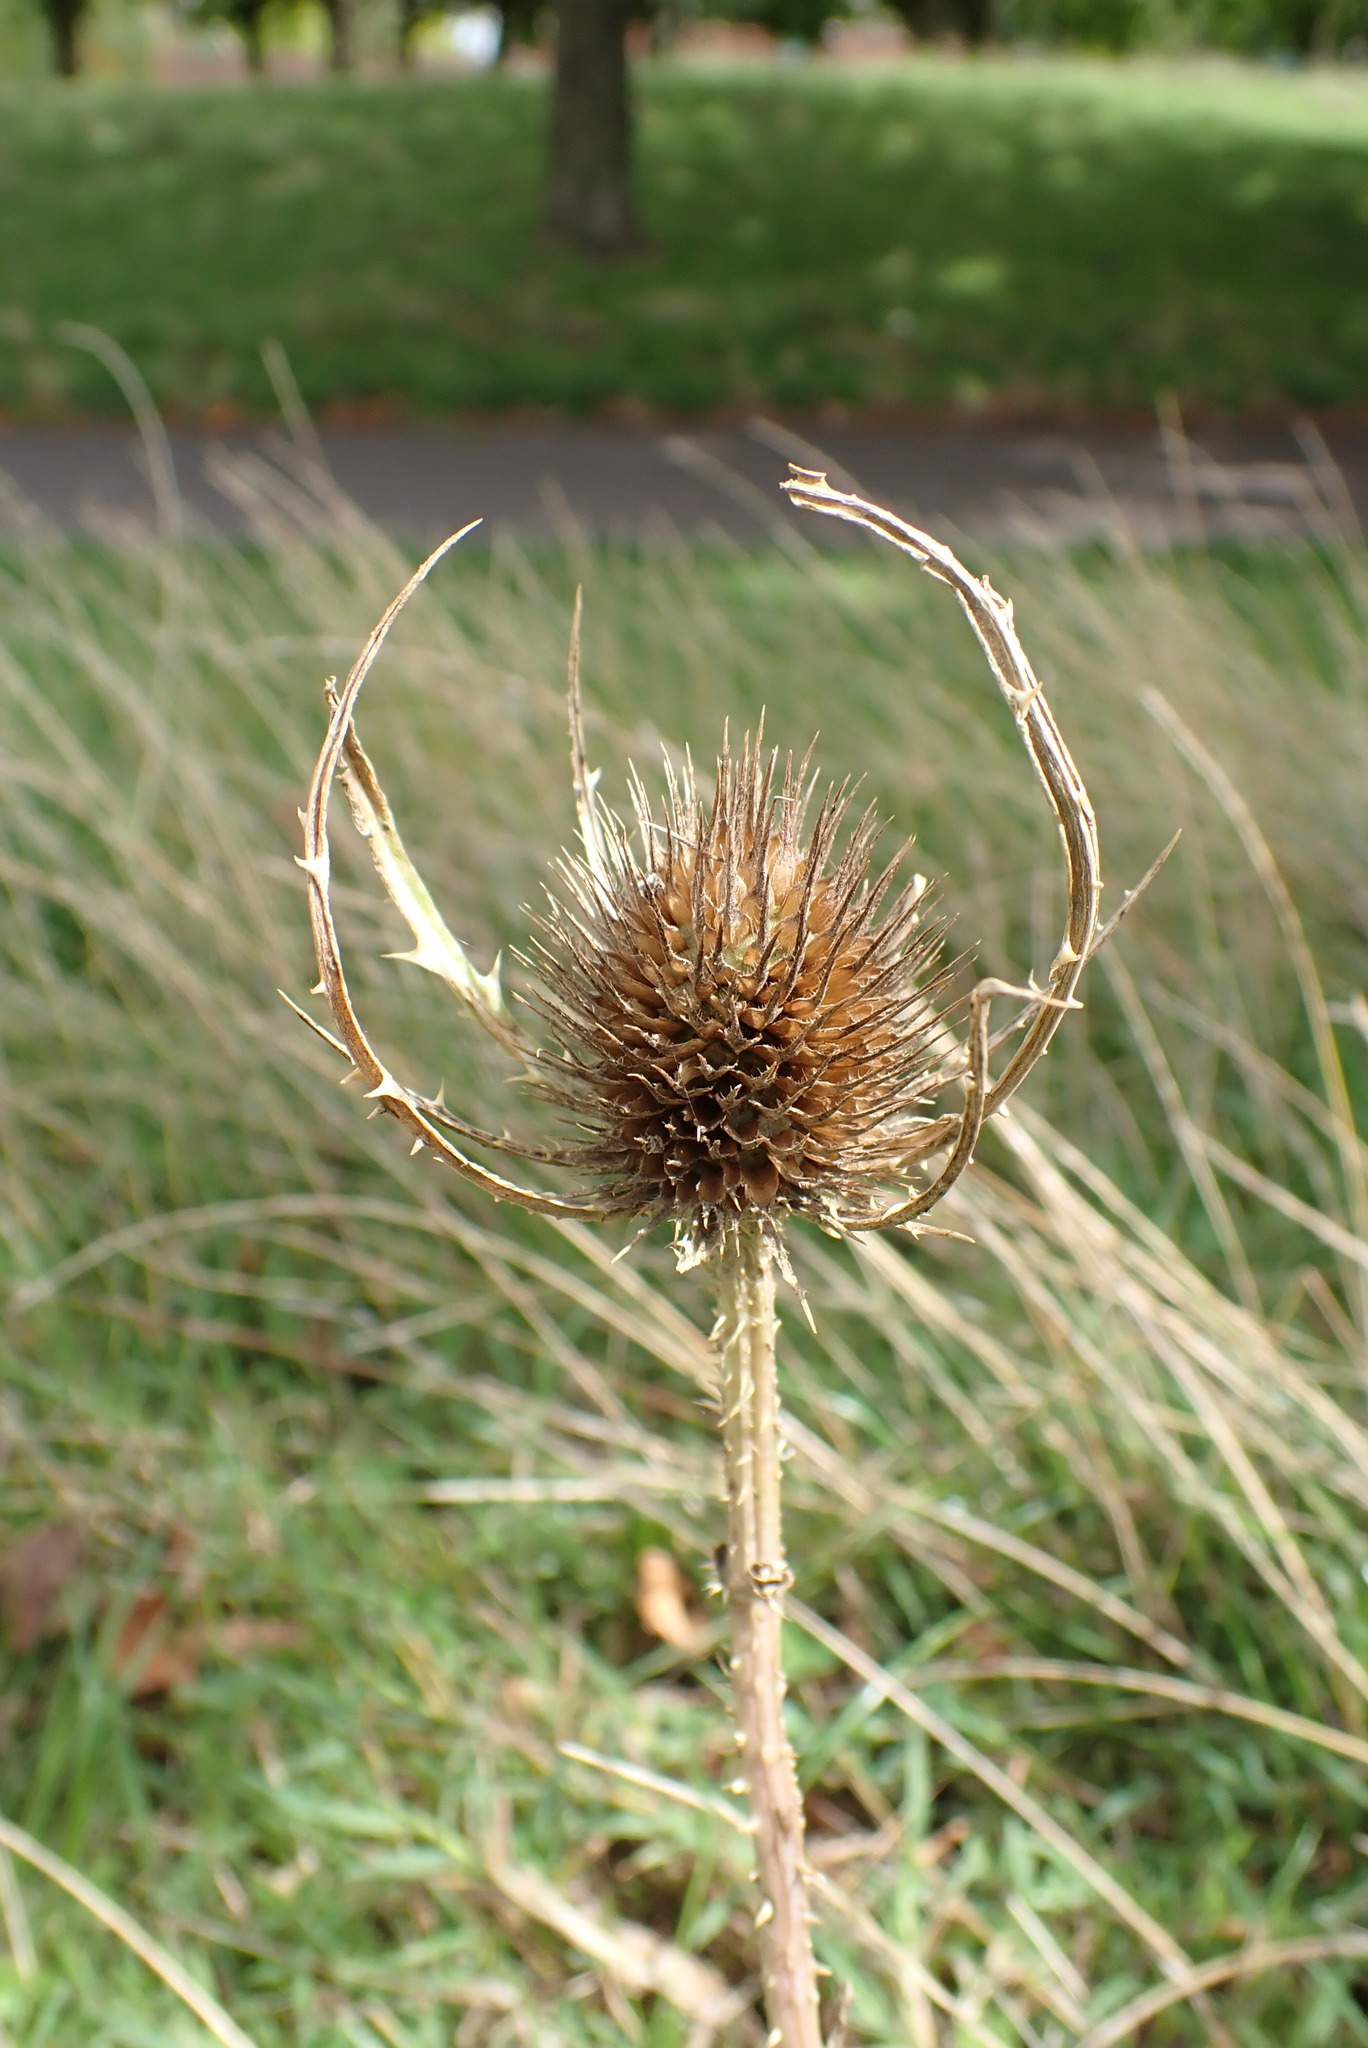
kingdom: Plantae
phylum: Tracheophyta
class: Magnoliopsida
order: Dipsacales
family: Caprifoliaceae
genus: Dipsacus
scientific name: Dipsacus fullonum
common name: Teasel
